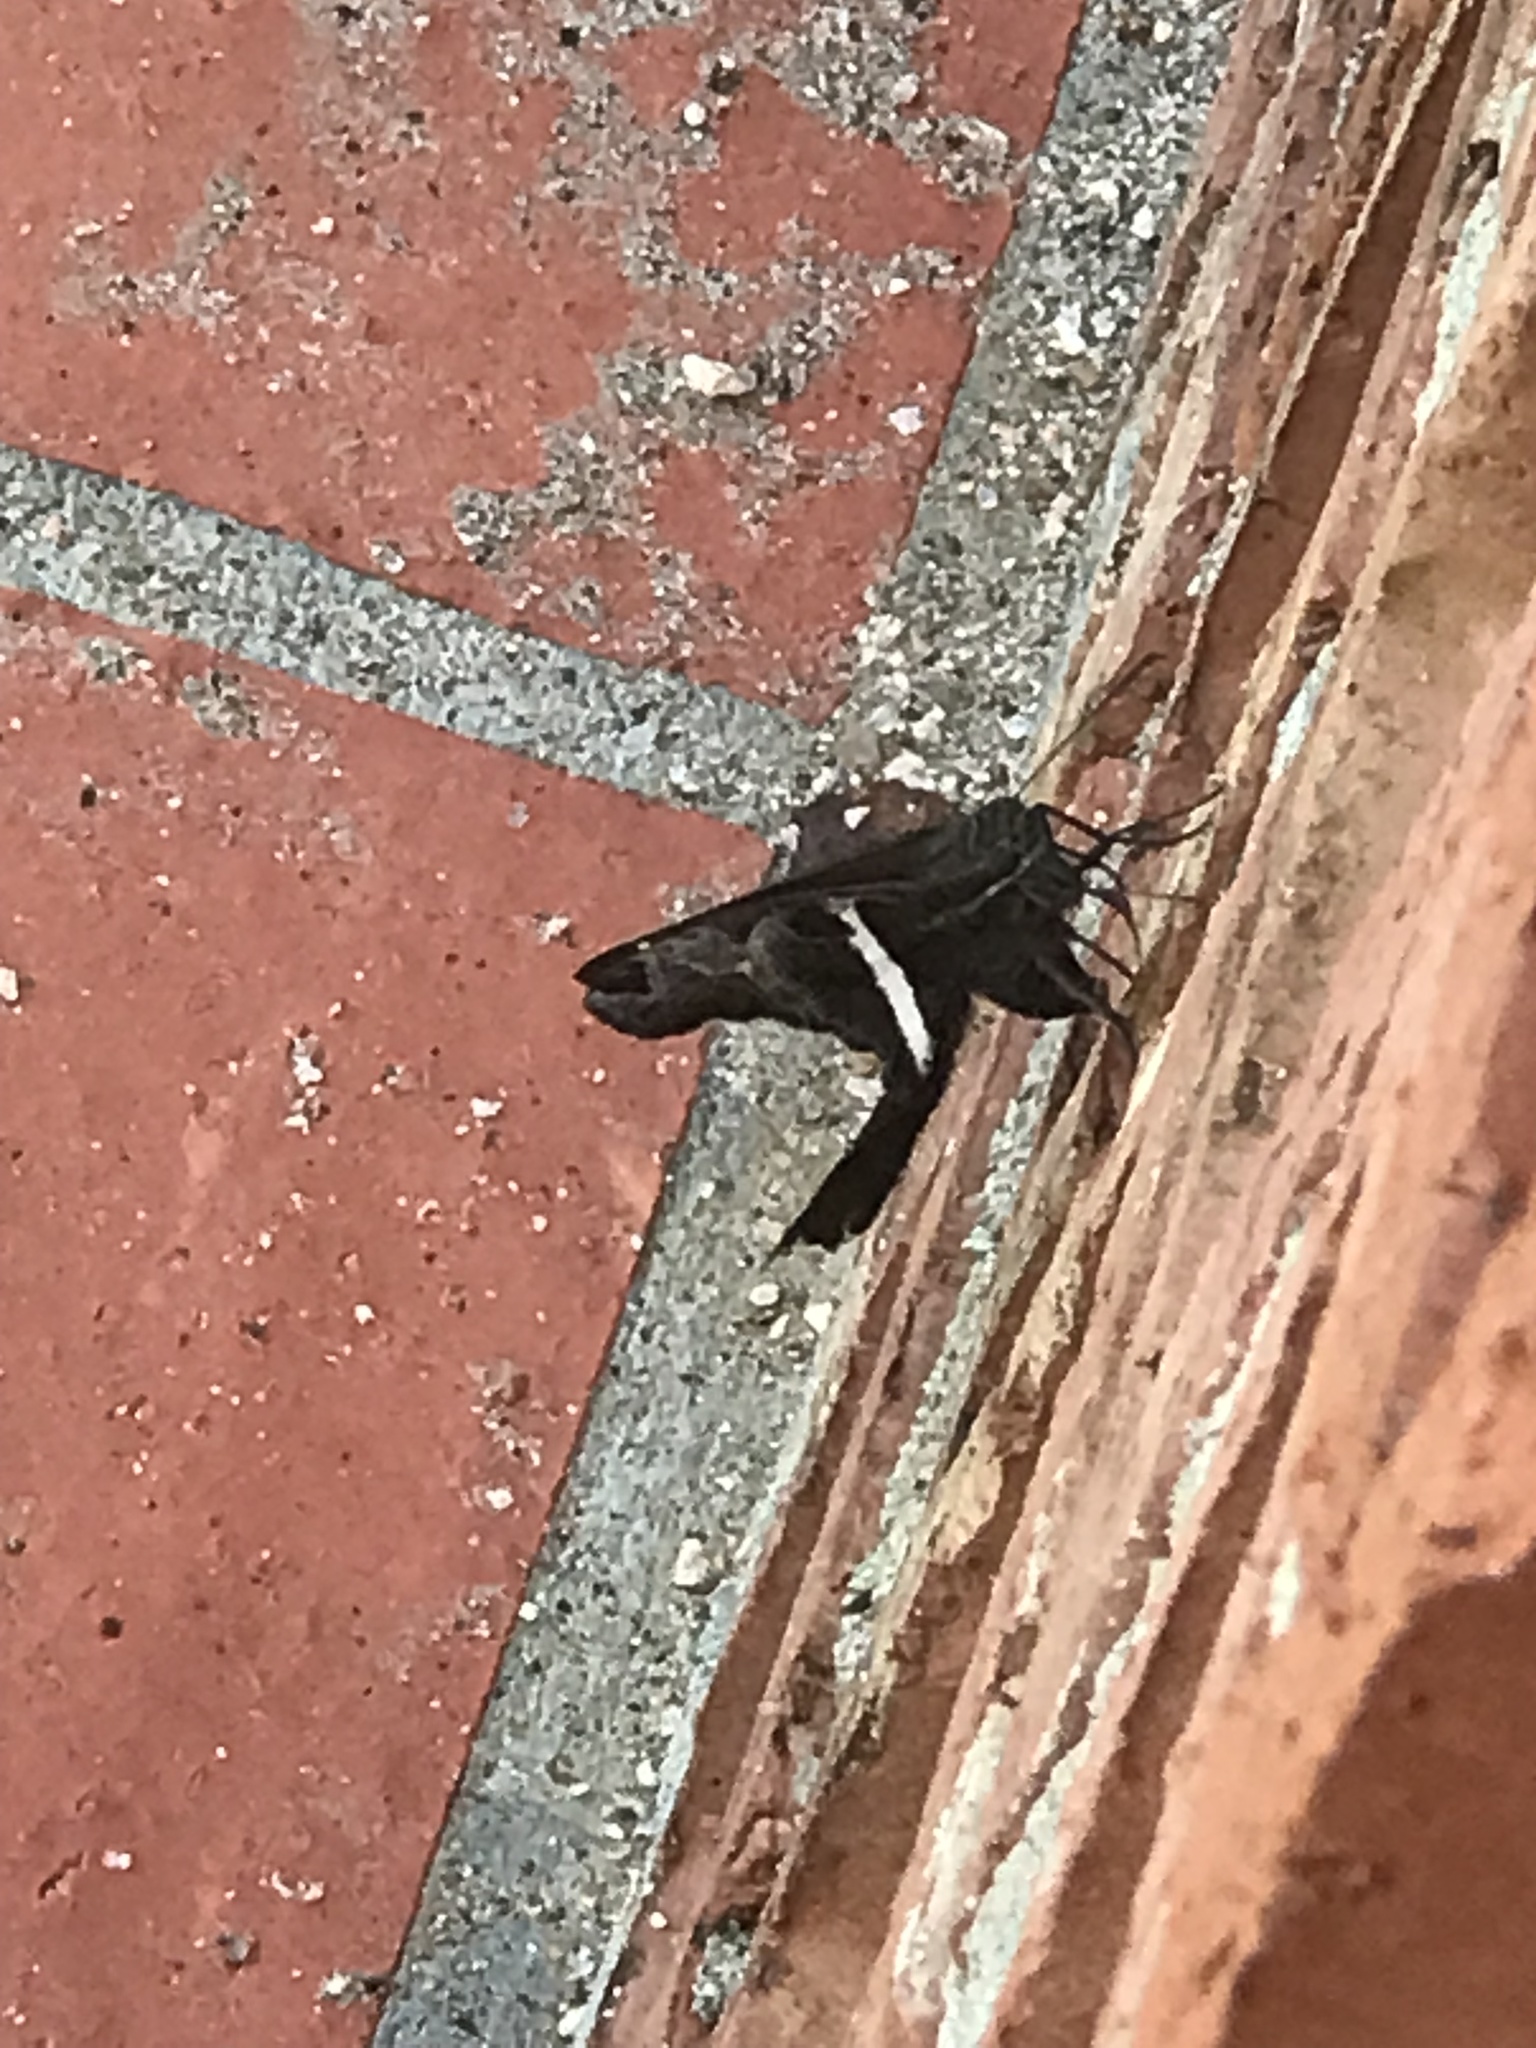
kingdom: Animalia
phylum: Arthropoda
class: Insecta
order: Lepidoptera
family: Hesperiidae
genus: Chioides
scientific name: Chioides catillus
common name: Silverbanded skipper
